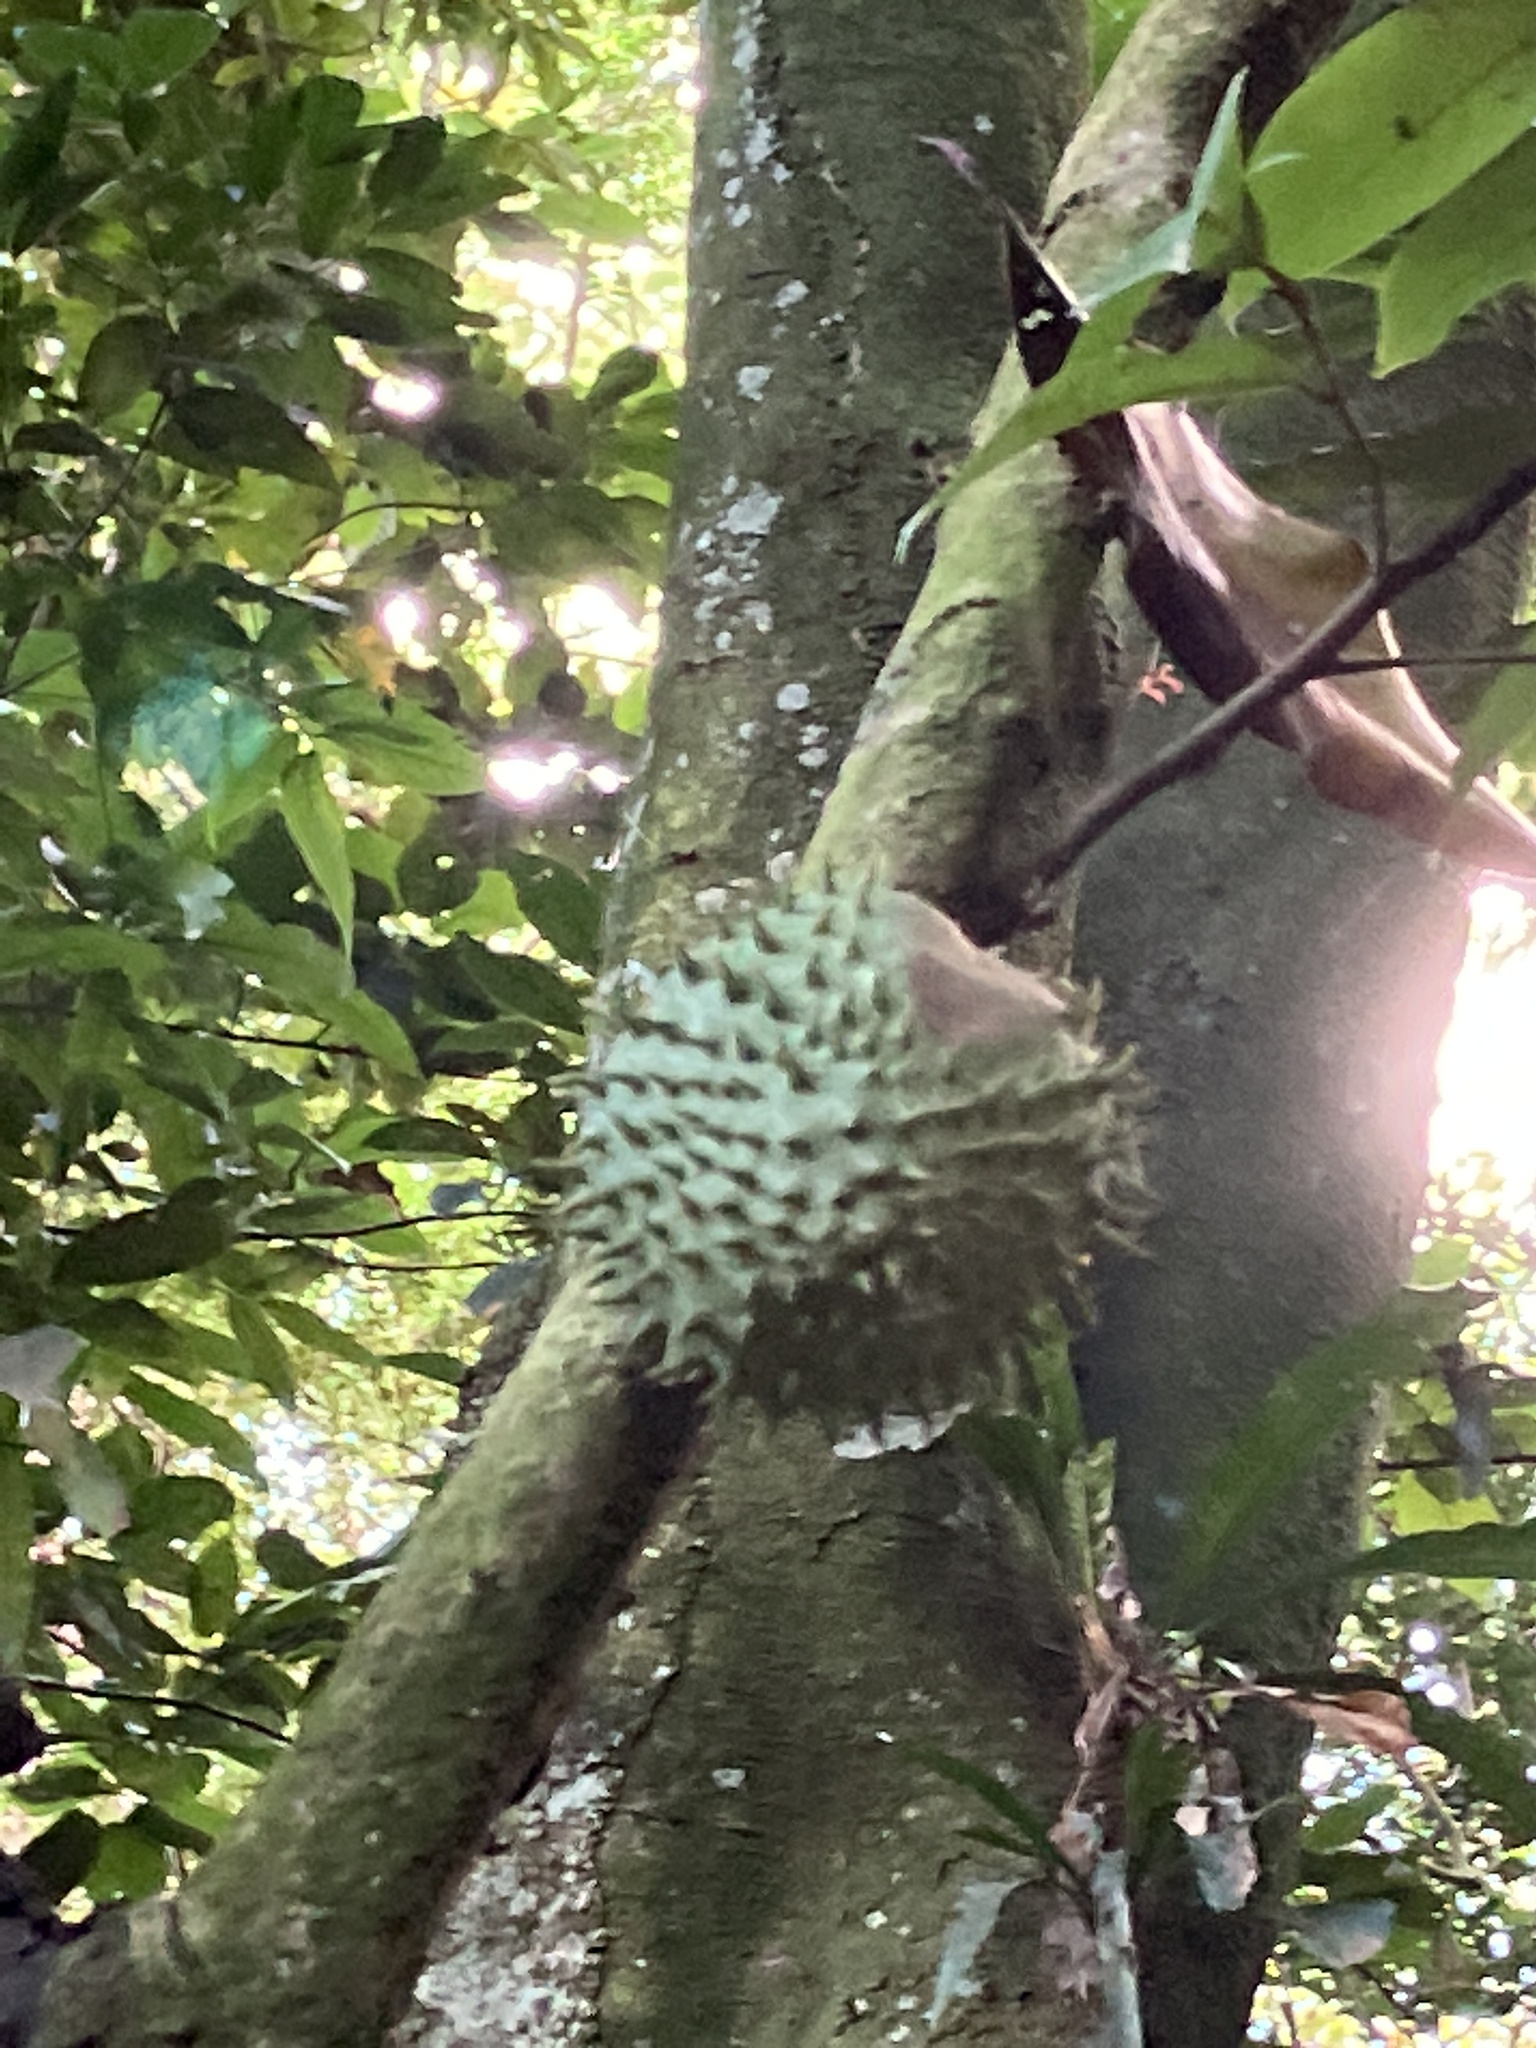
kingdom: Plantae
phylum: Tracheophyta
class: Magnoliopsida
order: Magnoliales
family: Annonaceae
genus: Annona
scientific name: Annona muricata
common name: Soursop
